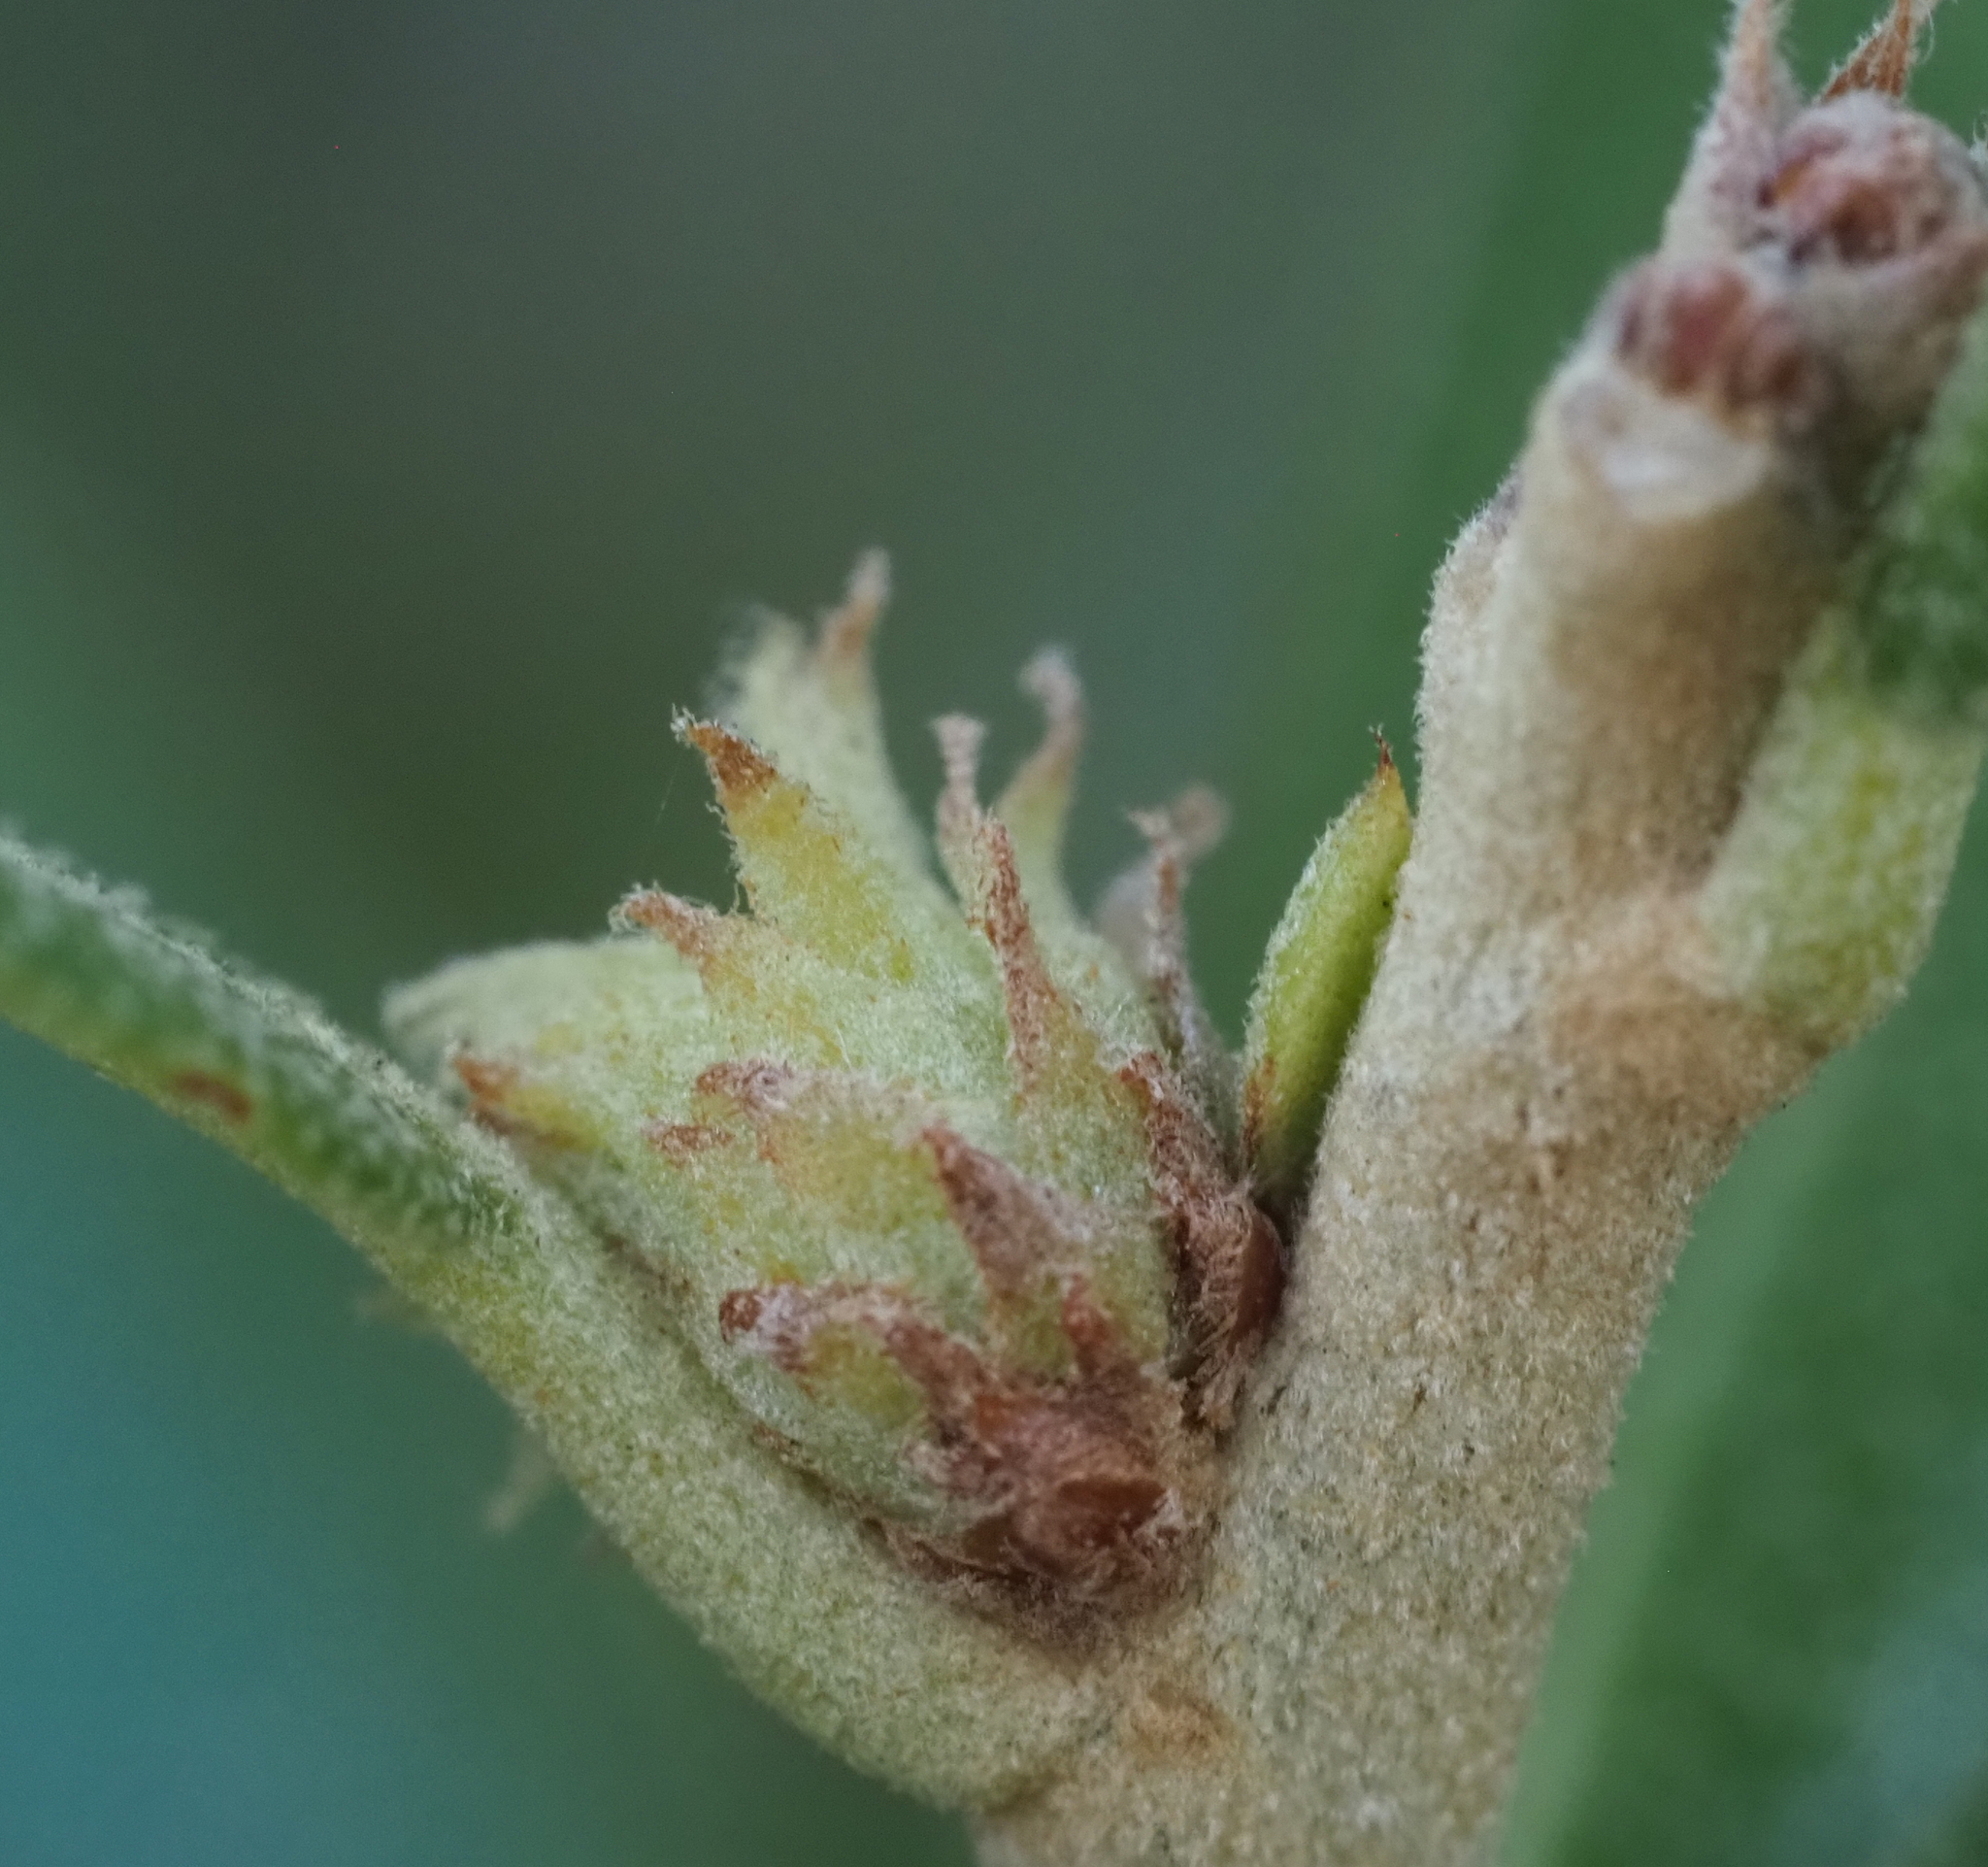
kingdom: Animalia
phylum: Arthropoda
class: Insecta
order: Hymenoptera
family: Cynipidae
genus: Andricus
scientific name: Andricus quercusfoliatus
